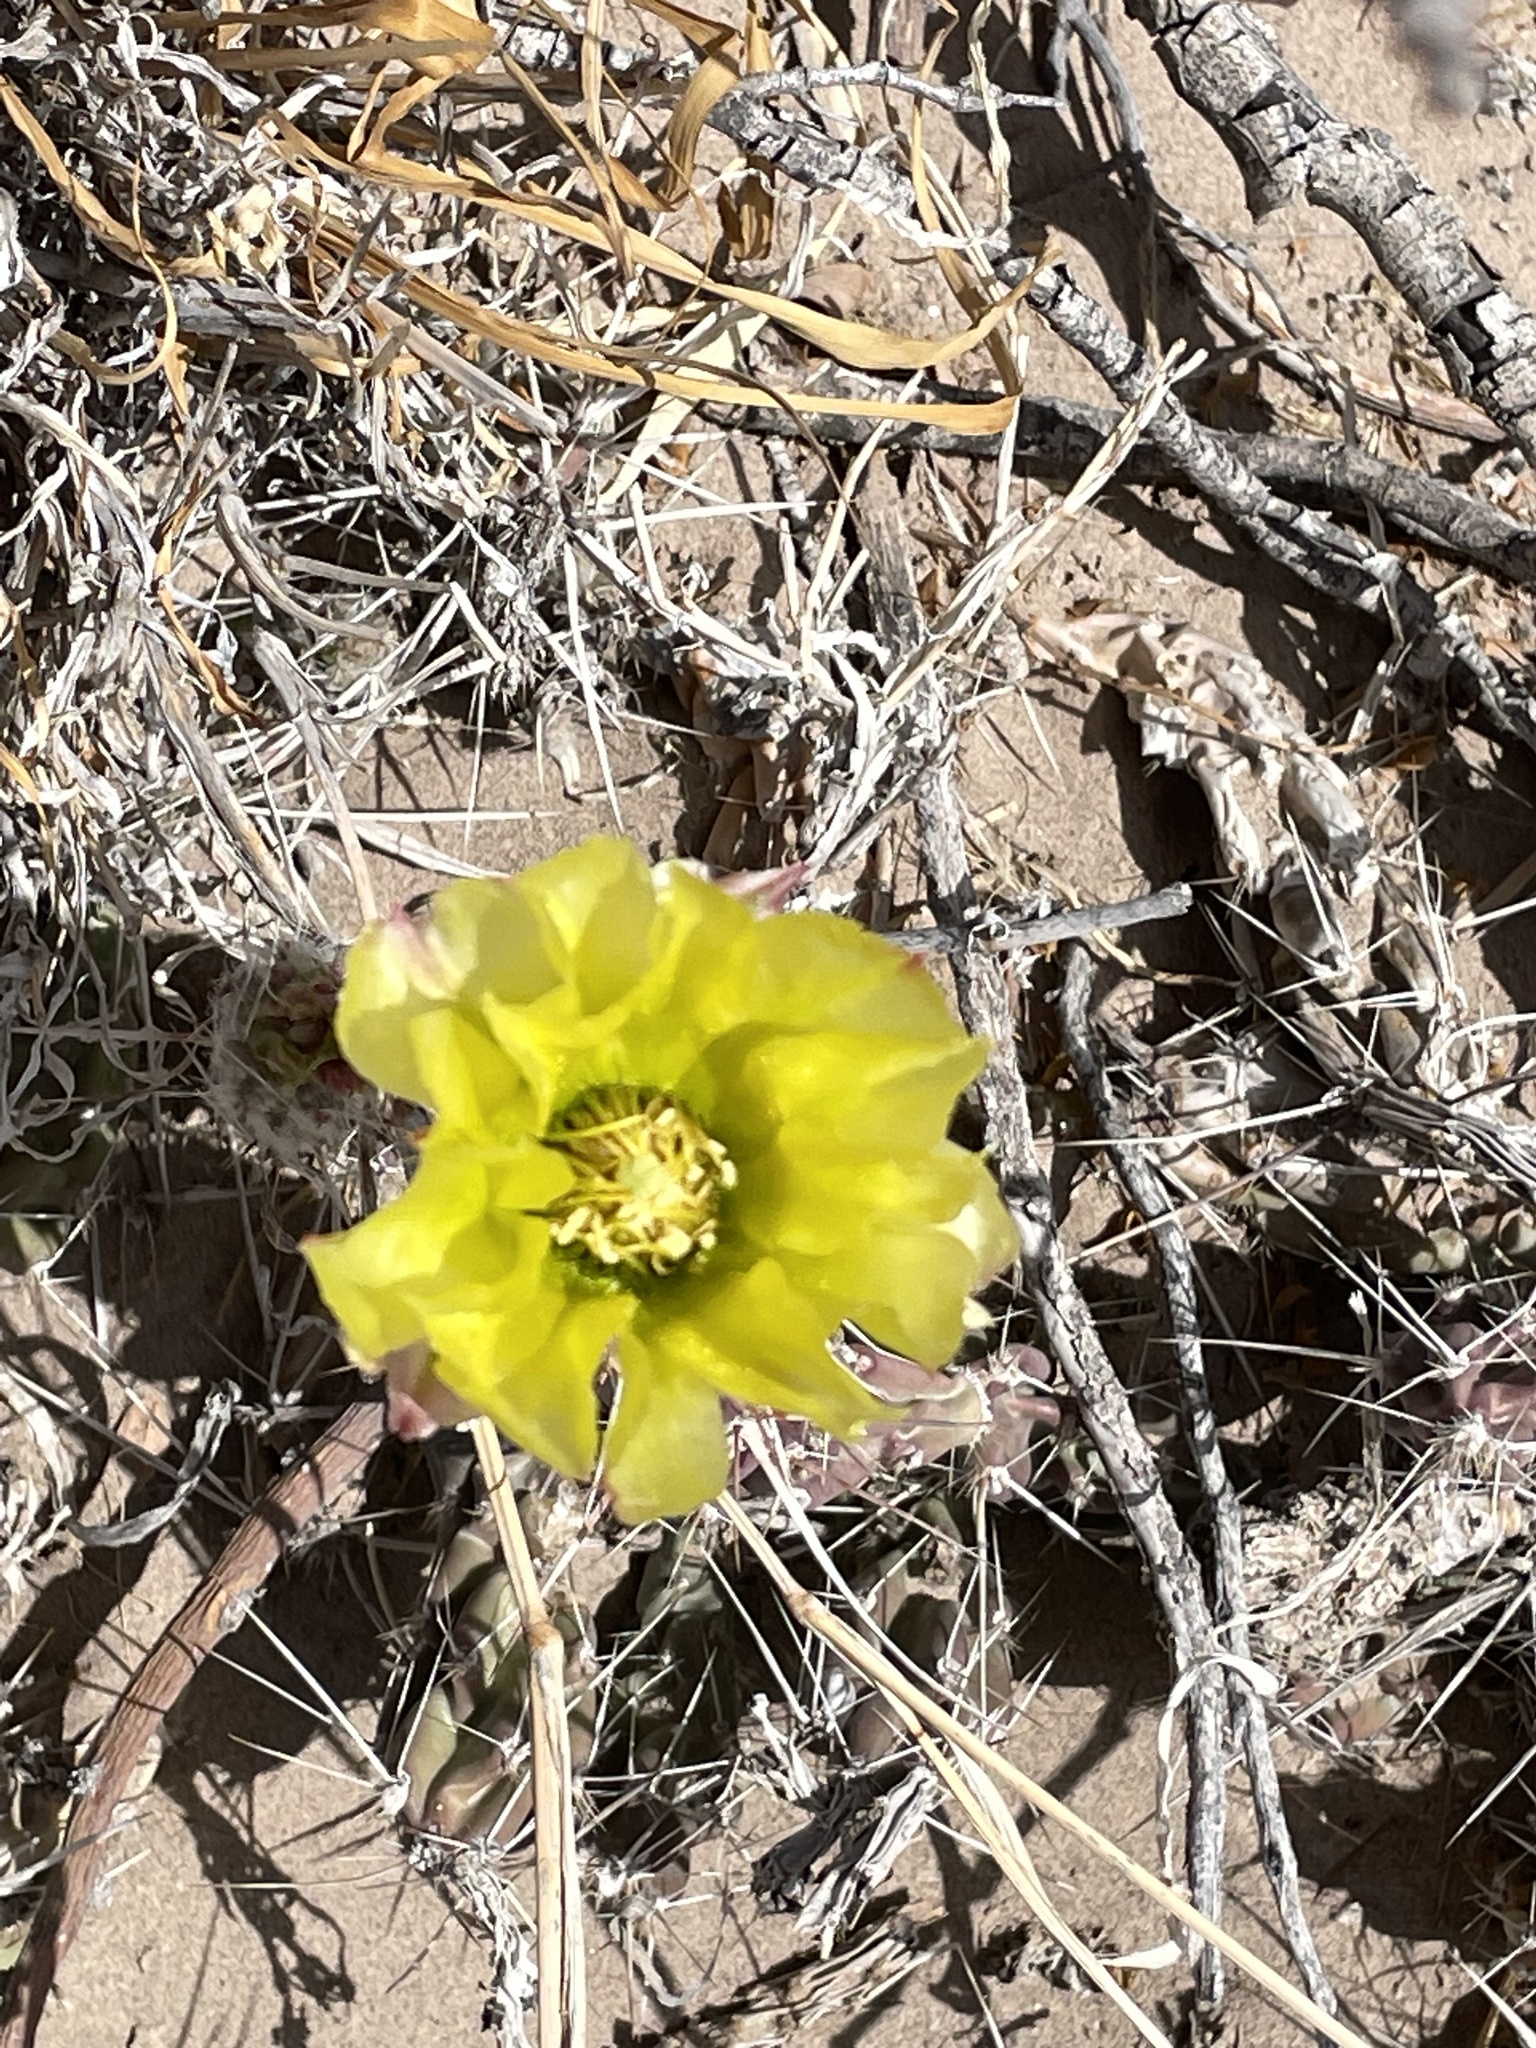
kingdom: Plantae
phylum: Tracheophyta
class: Magnoliopsida
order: Caryophyllales
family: Cactaceae
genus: Grusonia
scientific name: Grusonia aggeria
